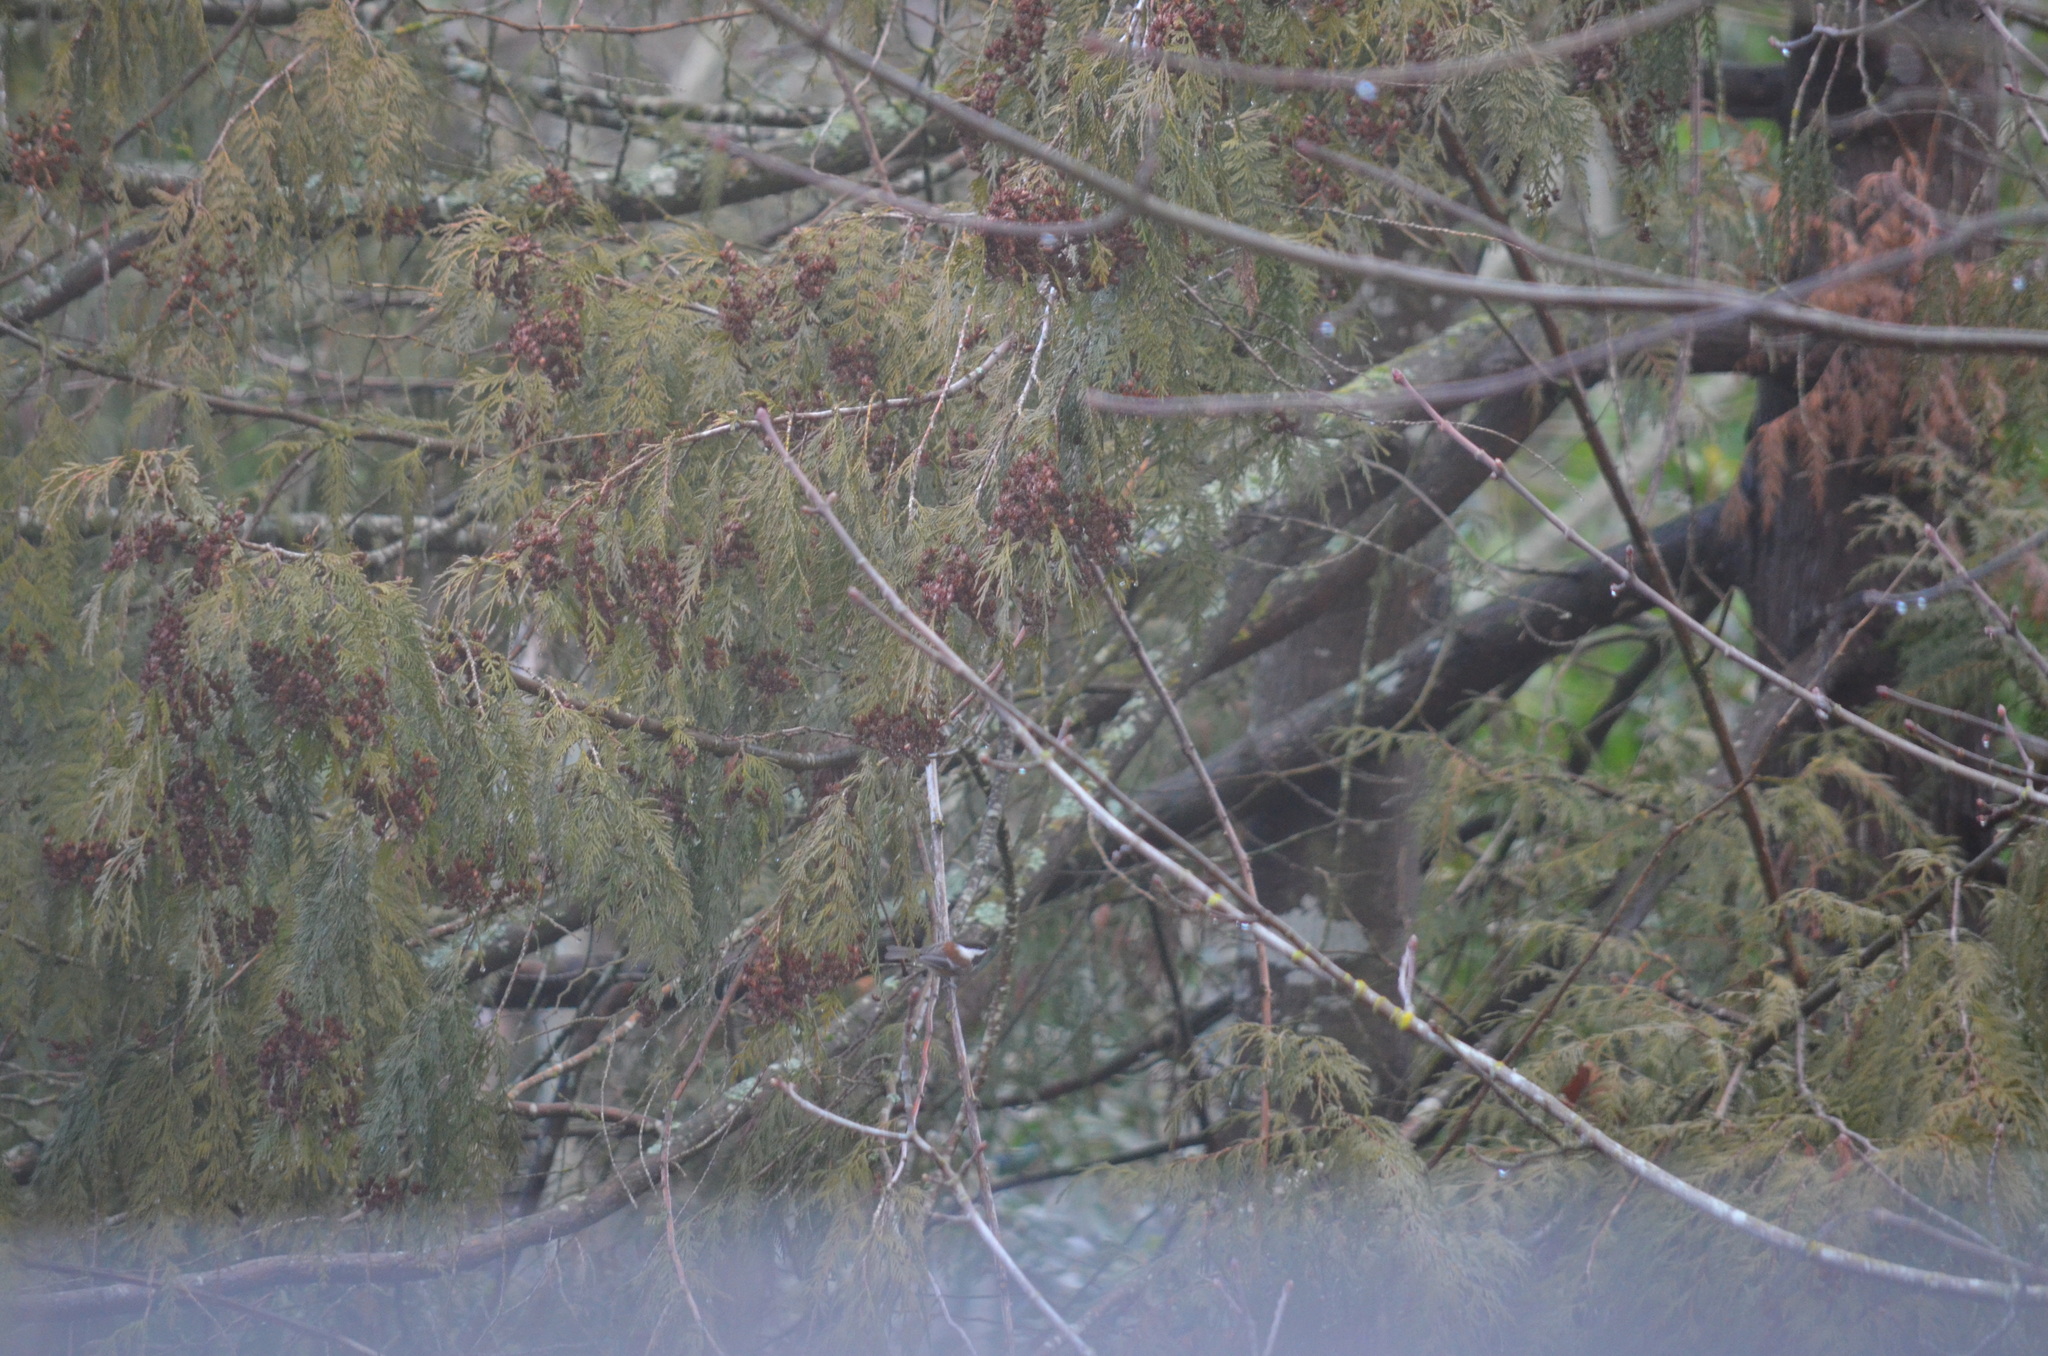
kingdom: Animalia
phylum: Chordata
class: Aves
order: Passeriformes
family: Paridae
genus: Poecile
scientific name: Poecile rufescens
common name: Chestnut-backed chickadee
